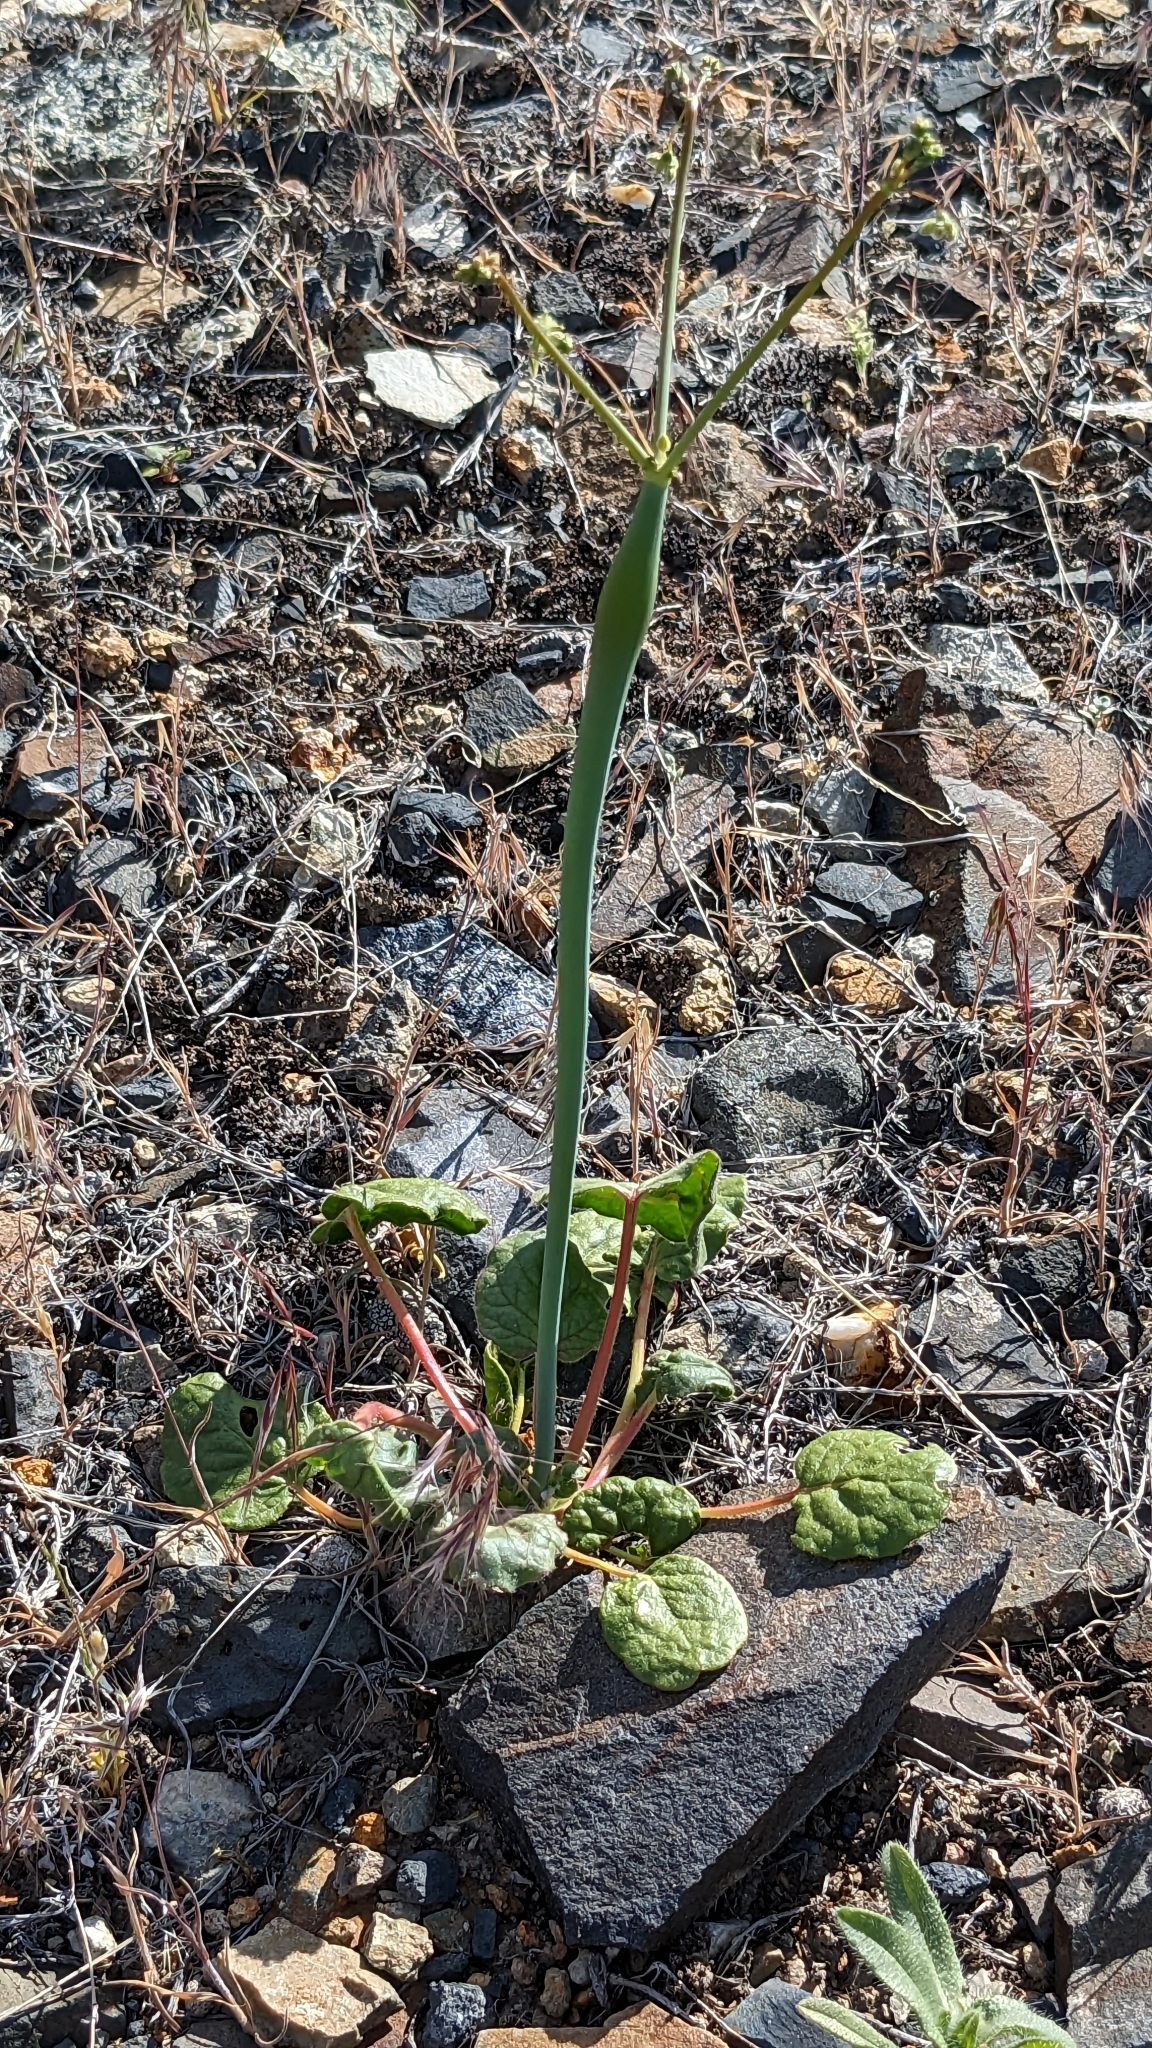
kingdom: Plantae
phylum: Tracheophyta
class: Magnoliopsida
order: Caryophyllales
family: Polygonaceae
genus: Eriogonum
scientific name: Eriogonum inflatum
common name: Desert trumpet
